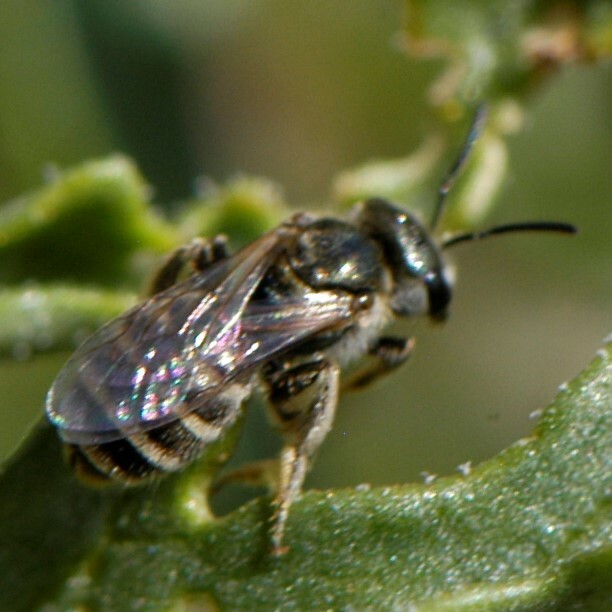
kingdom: Animalia
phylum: Arthropoda
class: Insecta
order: Hymenoptera
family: Halictidae
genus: Halictus
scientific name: Halictus tripartitus
